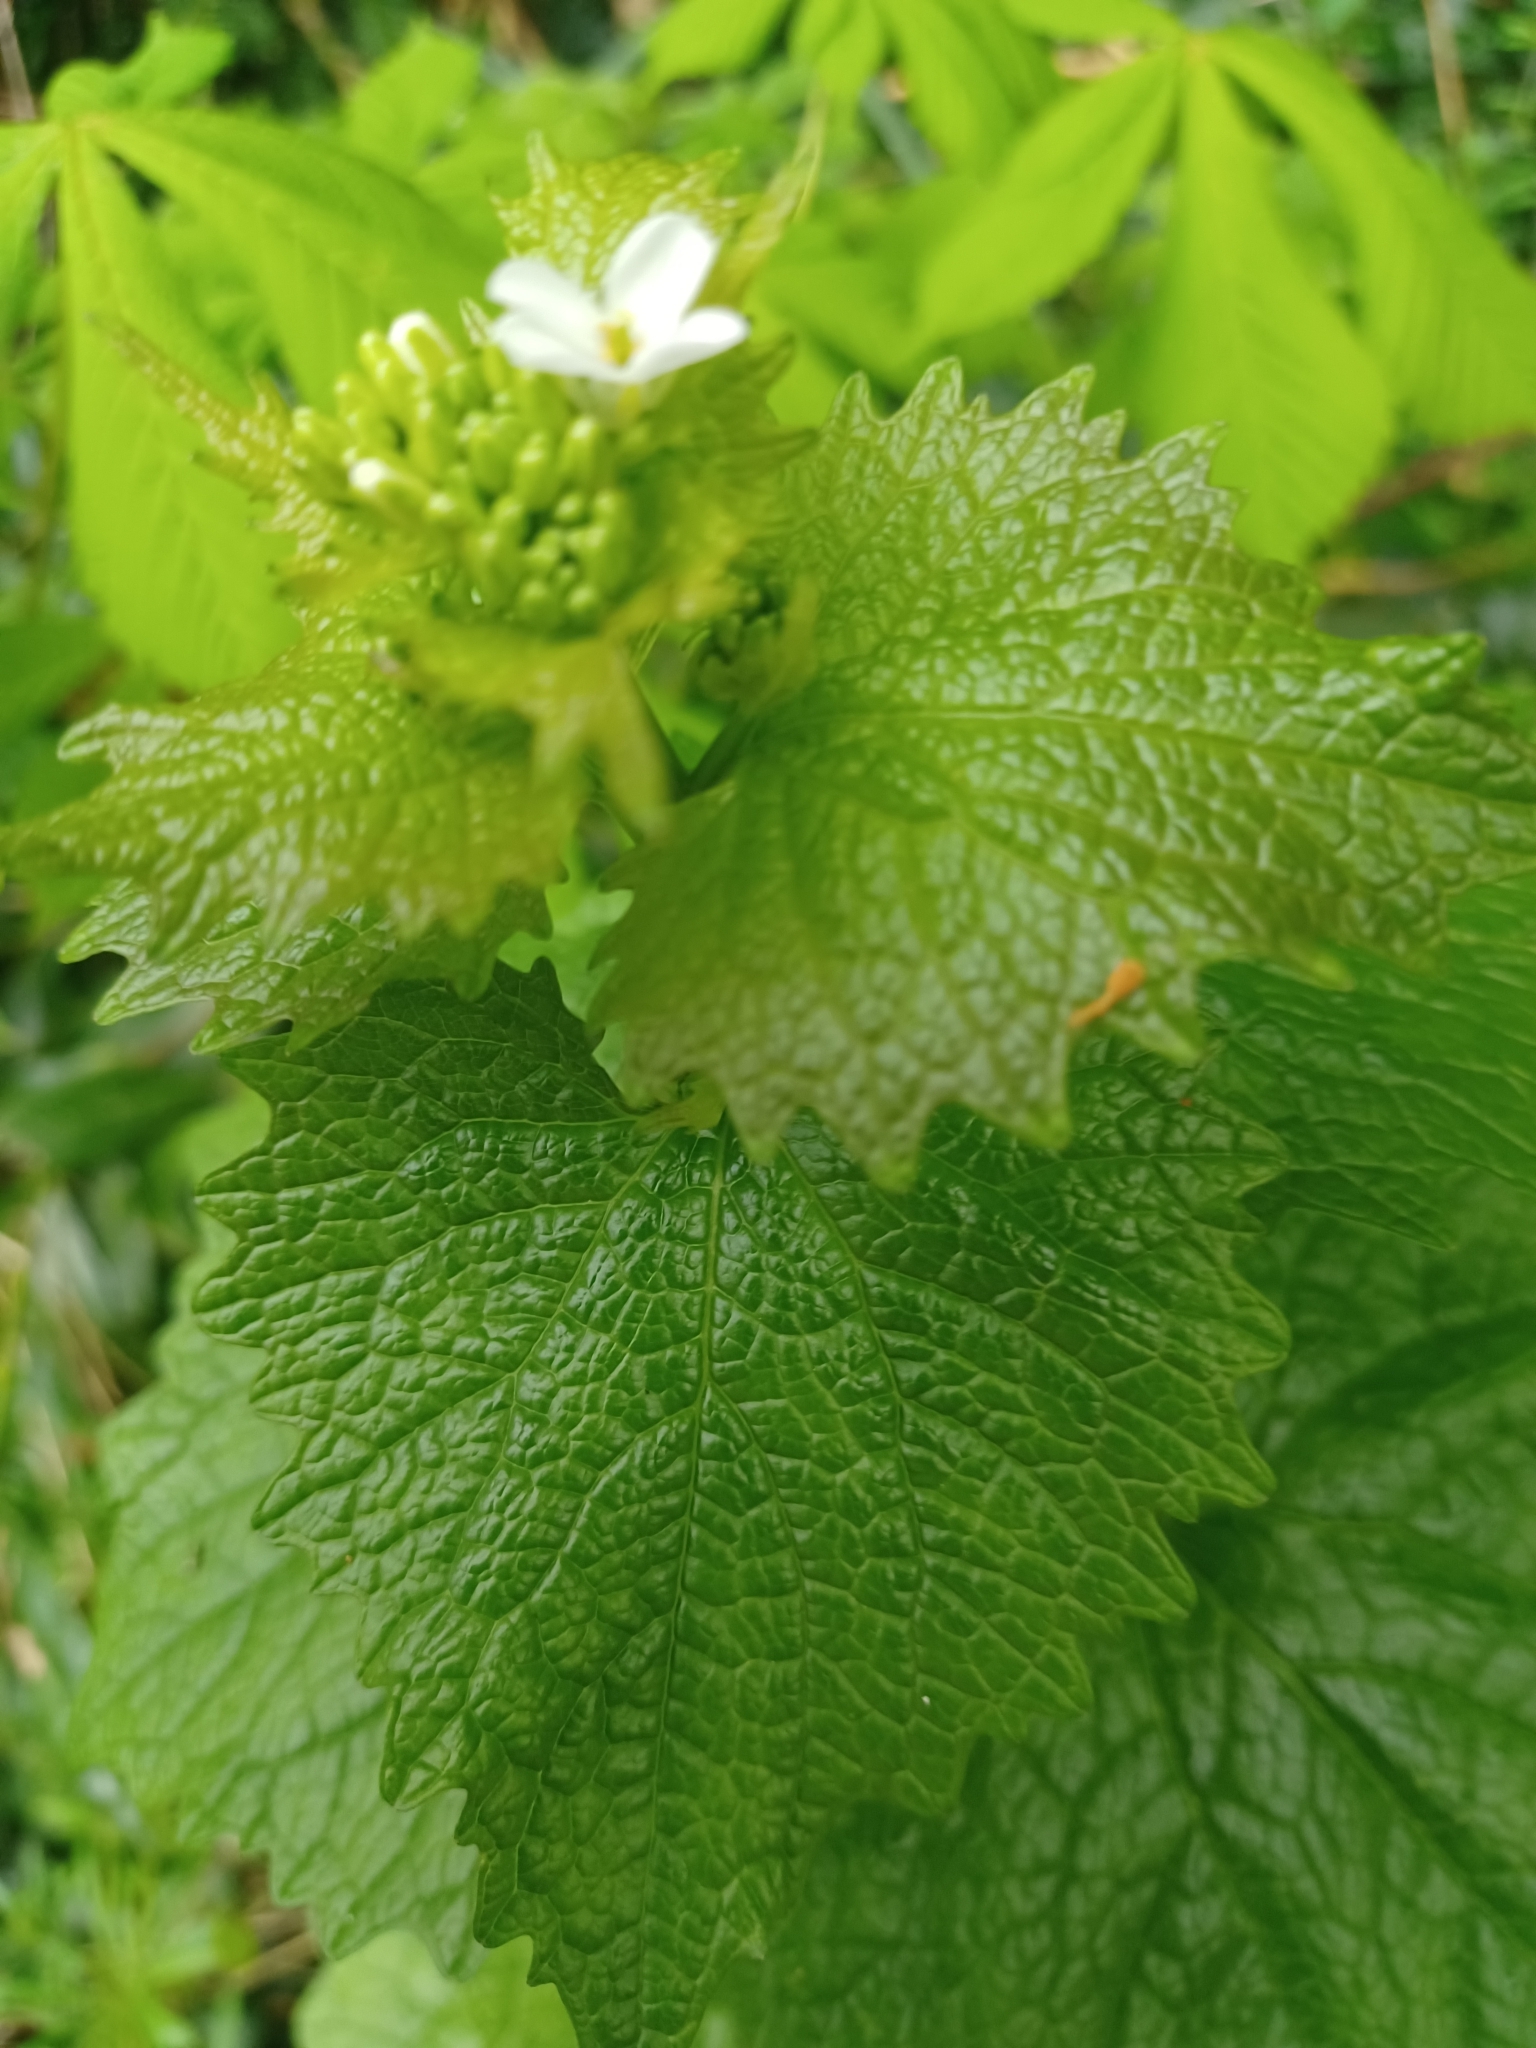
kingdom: Plantae
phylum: Tracheophyta
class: Magnoliopsida
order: Brassicales
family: Brassicaceae
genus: Alliaria
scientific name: Alliaria petiolata
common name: Garlic mustard
